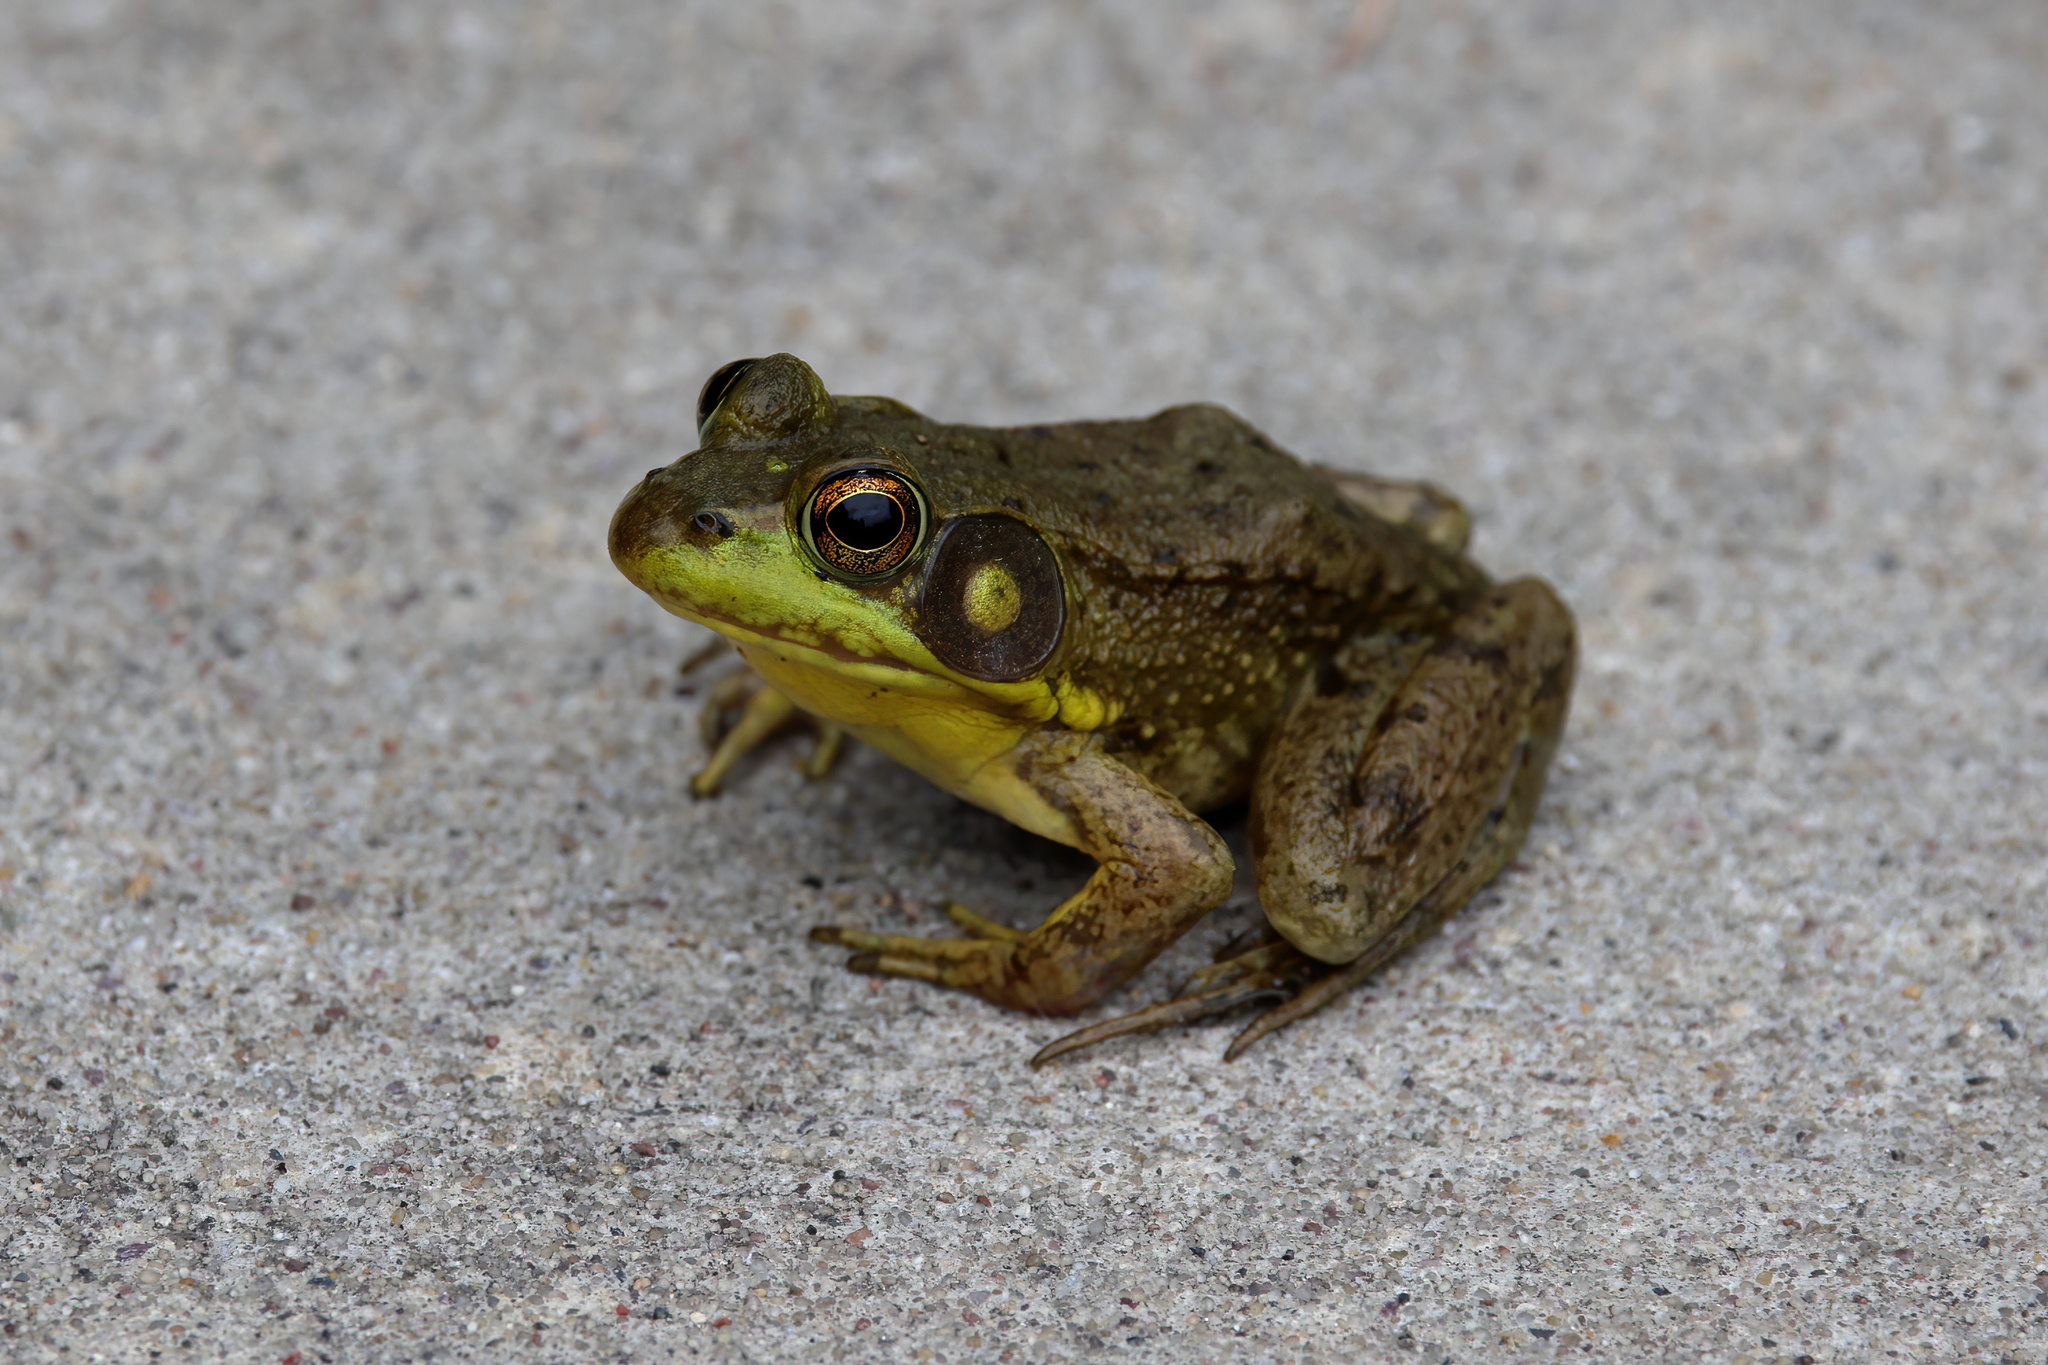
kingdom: Animalia
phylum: Chordata
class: Amphibia
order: Anura
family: Ranidae
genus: Lithobates
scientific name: Lithobates clamitans
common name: Green frog
